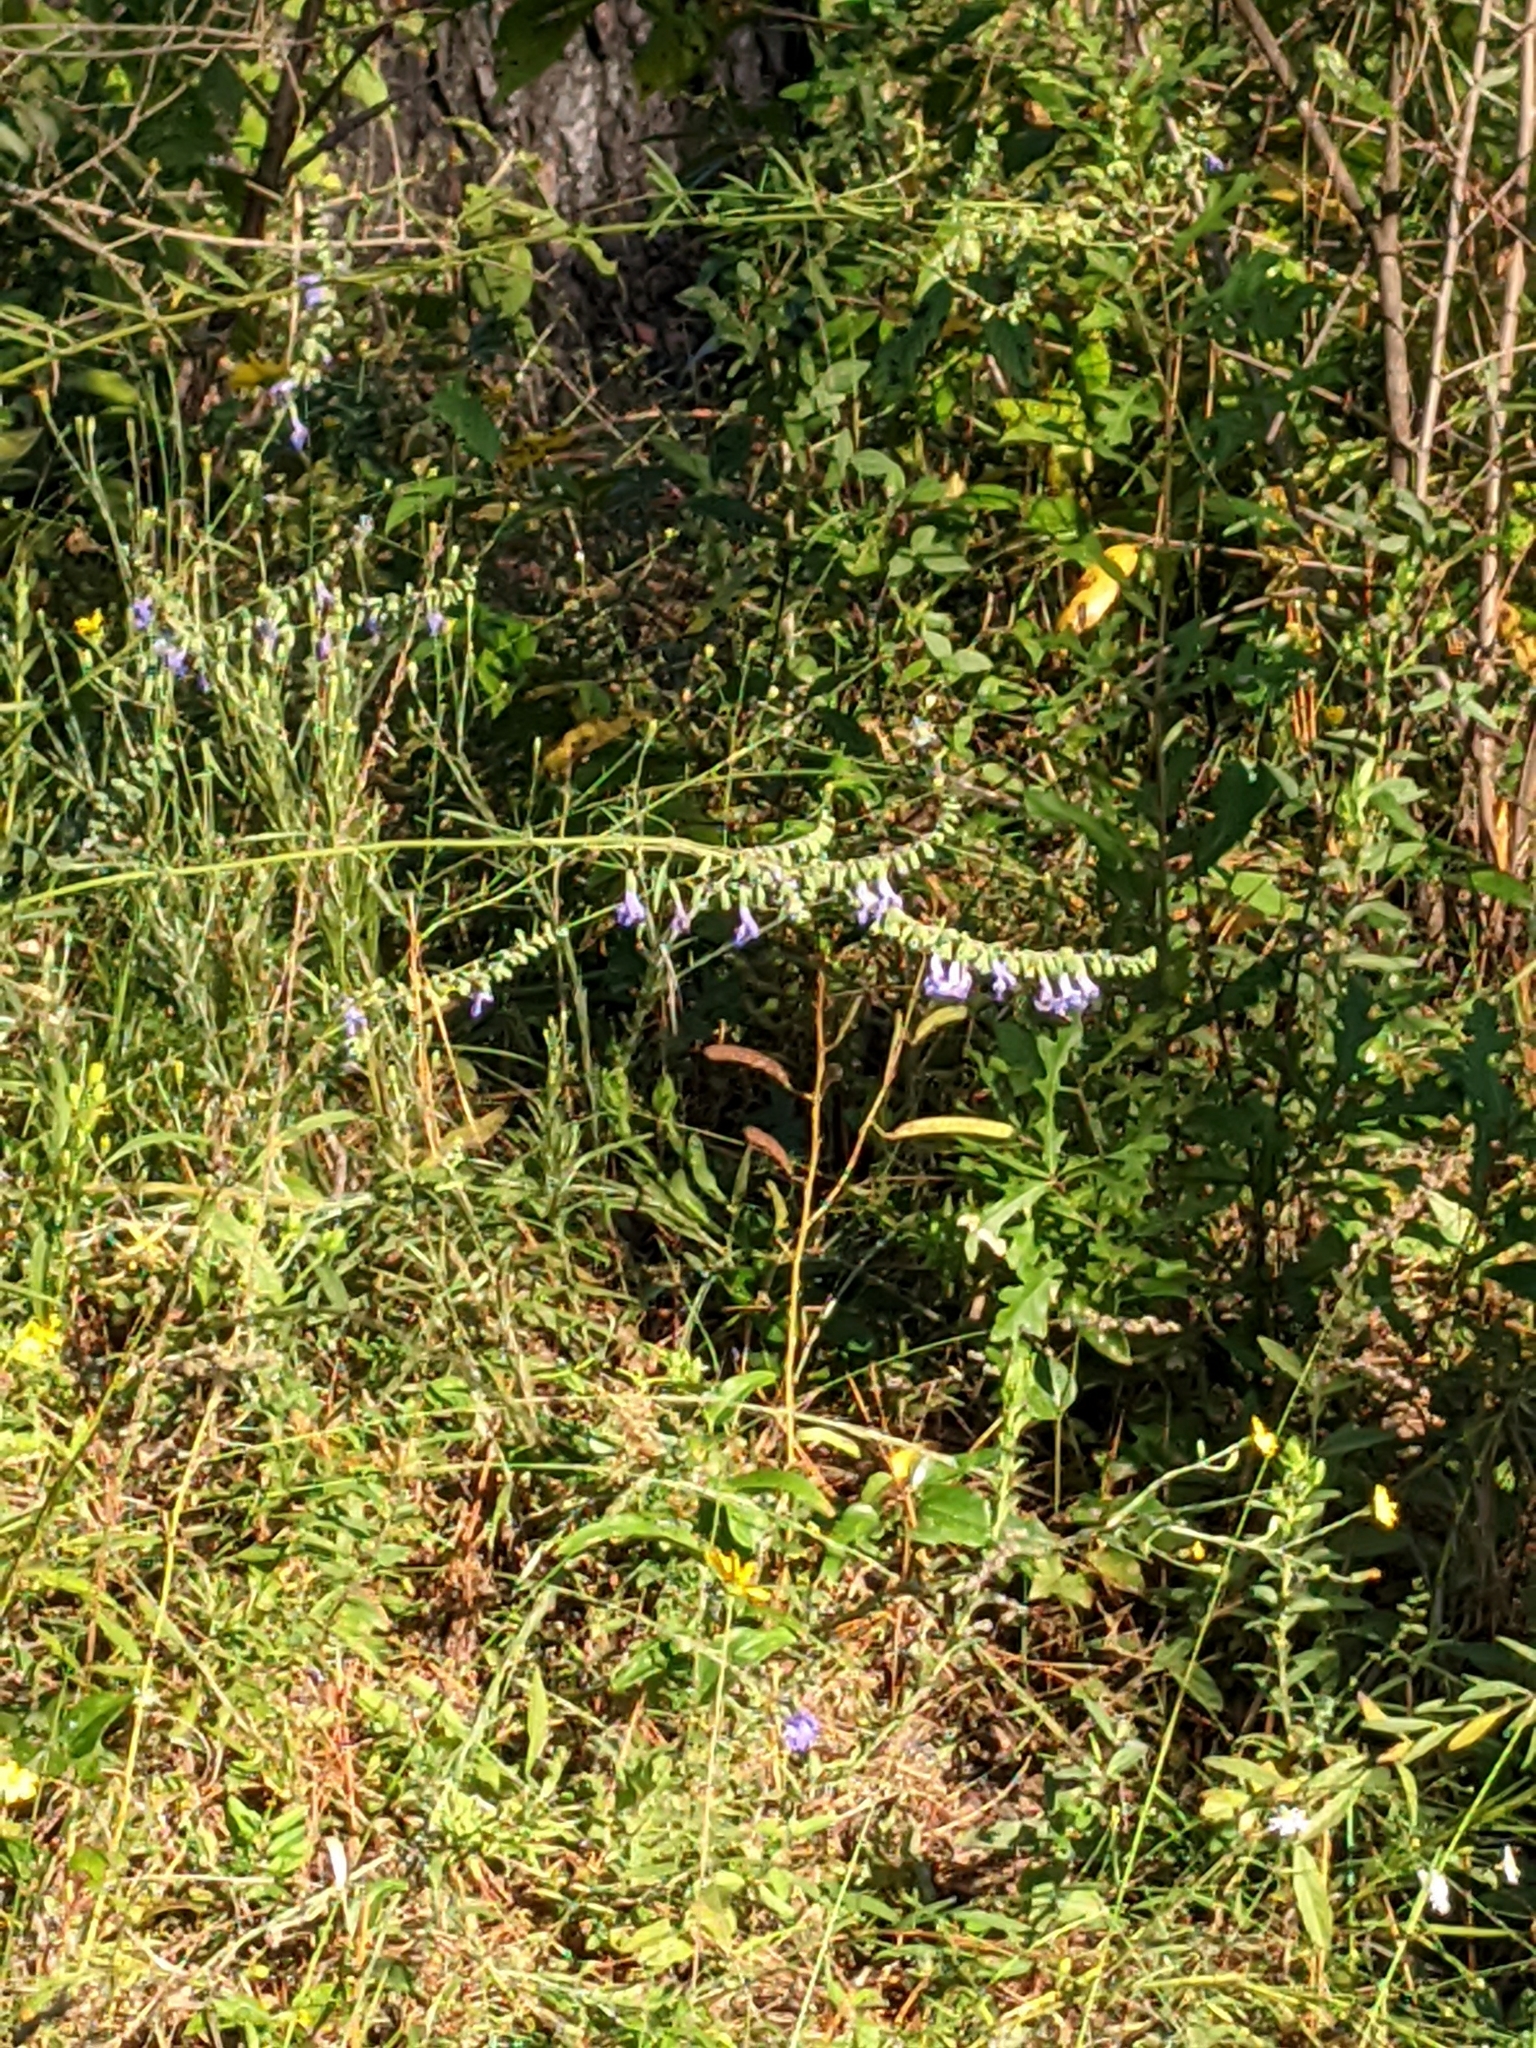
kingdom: Plantae
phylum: Tracheophyta
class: Magnoliopsida
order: Lamiales
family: Lamiaceae
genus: Salvia
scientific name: Salvia azurea
